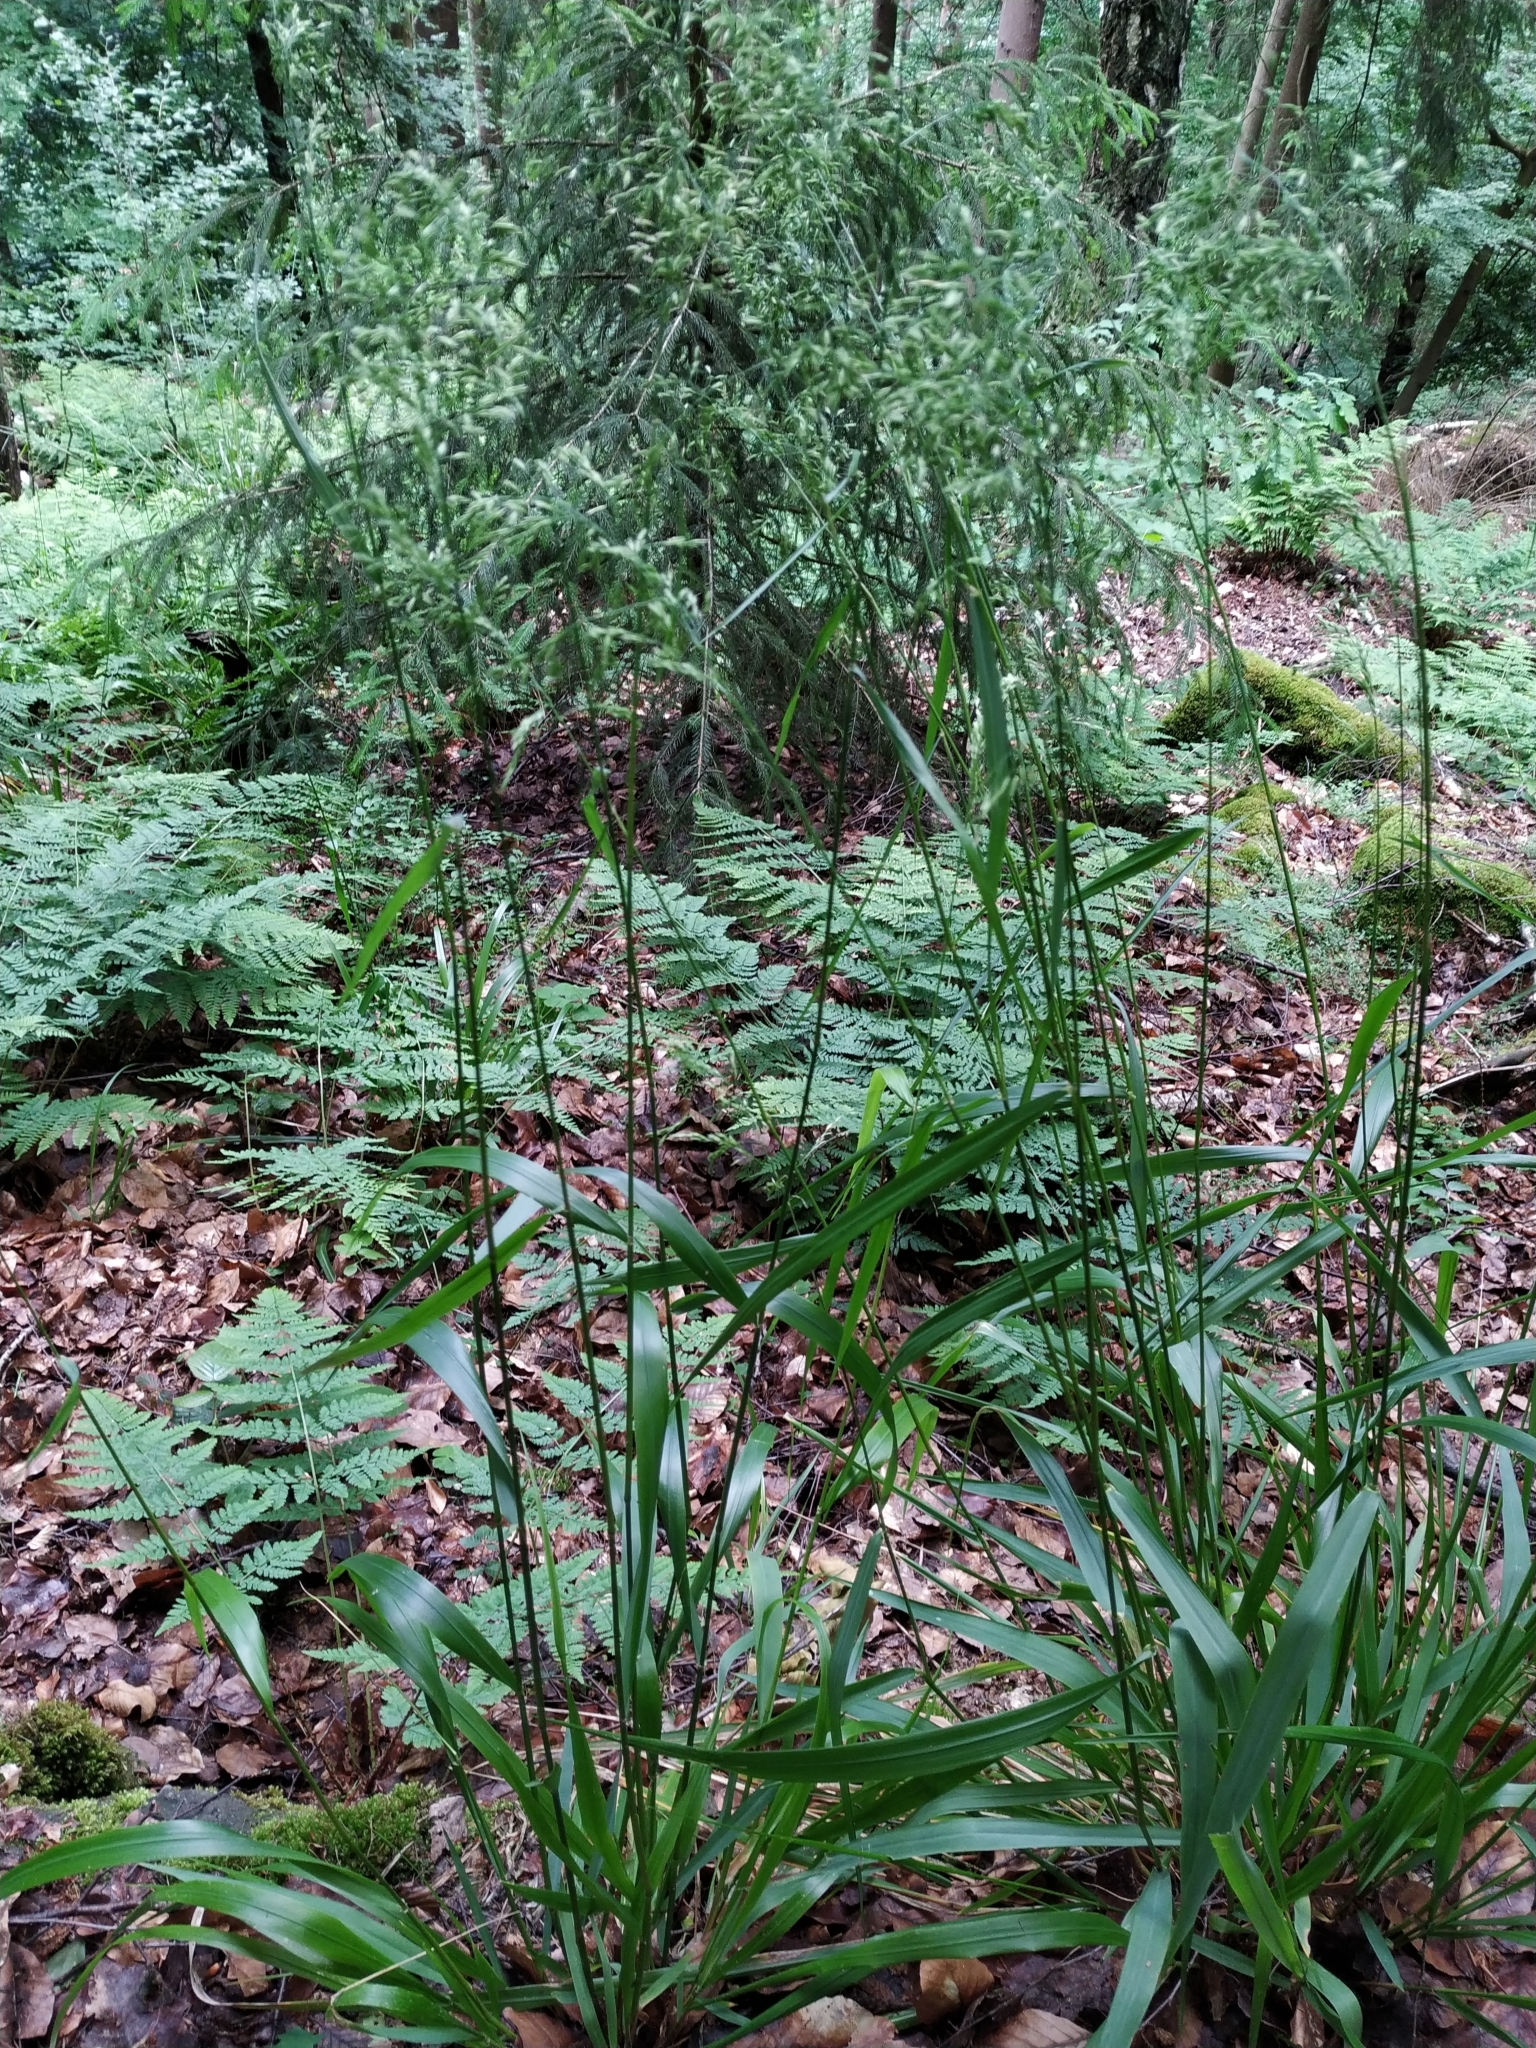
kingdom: Plantae
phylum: Tracheophyta
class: Liliopsida
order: Poales
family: Poaceae
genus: Festuca
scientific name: Festuca altissima
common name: Wood fescue
